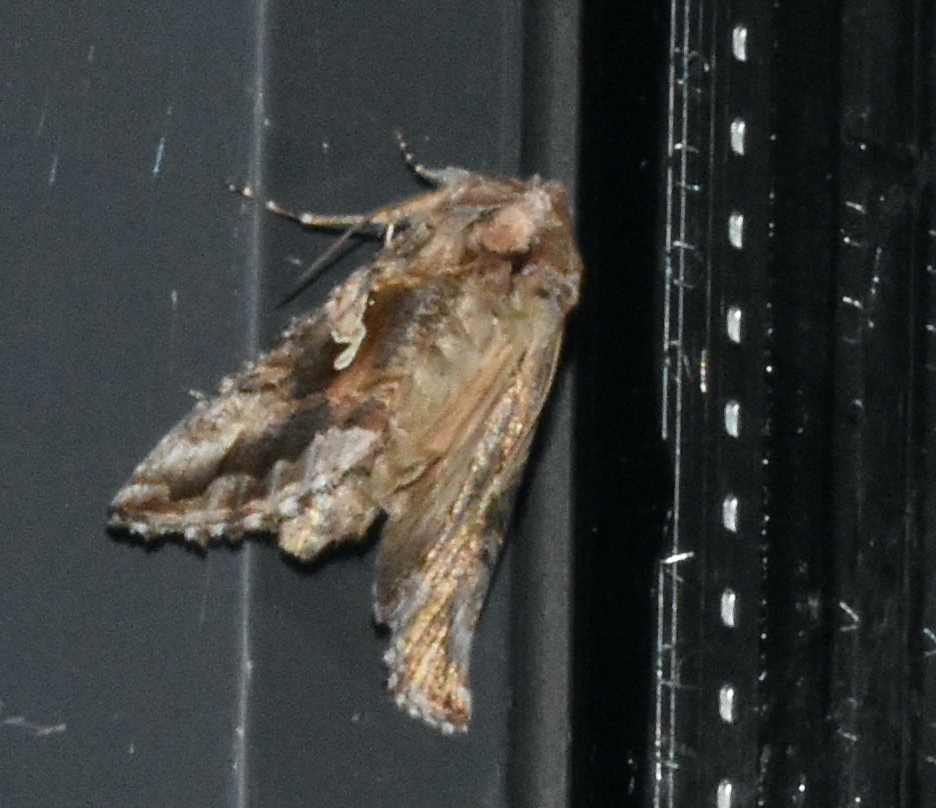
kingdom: Animalia
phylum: Arthropoda
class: Insecta
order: Lepidoptera
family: Noctuidae
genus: Autographa
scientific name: Autographa californica
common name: Alfalfa looper
